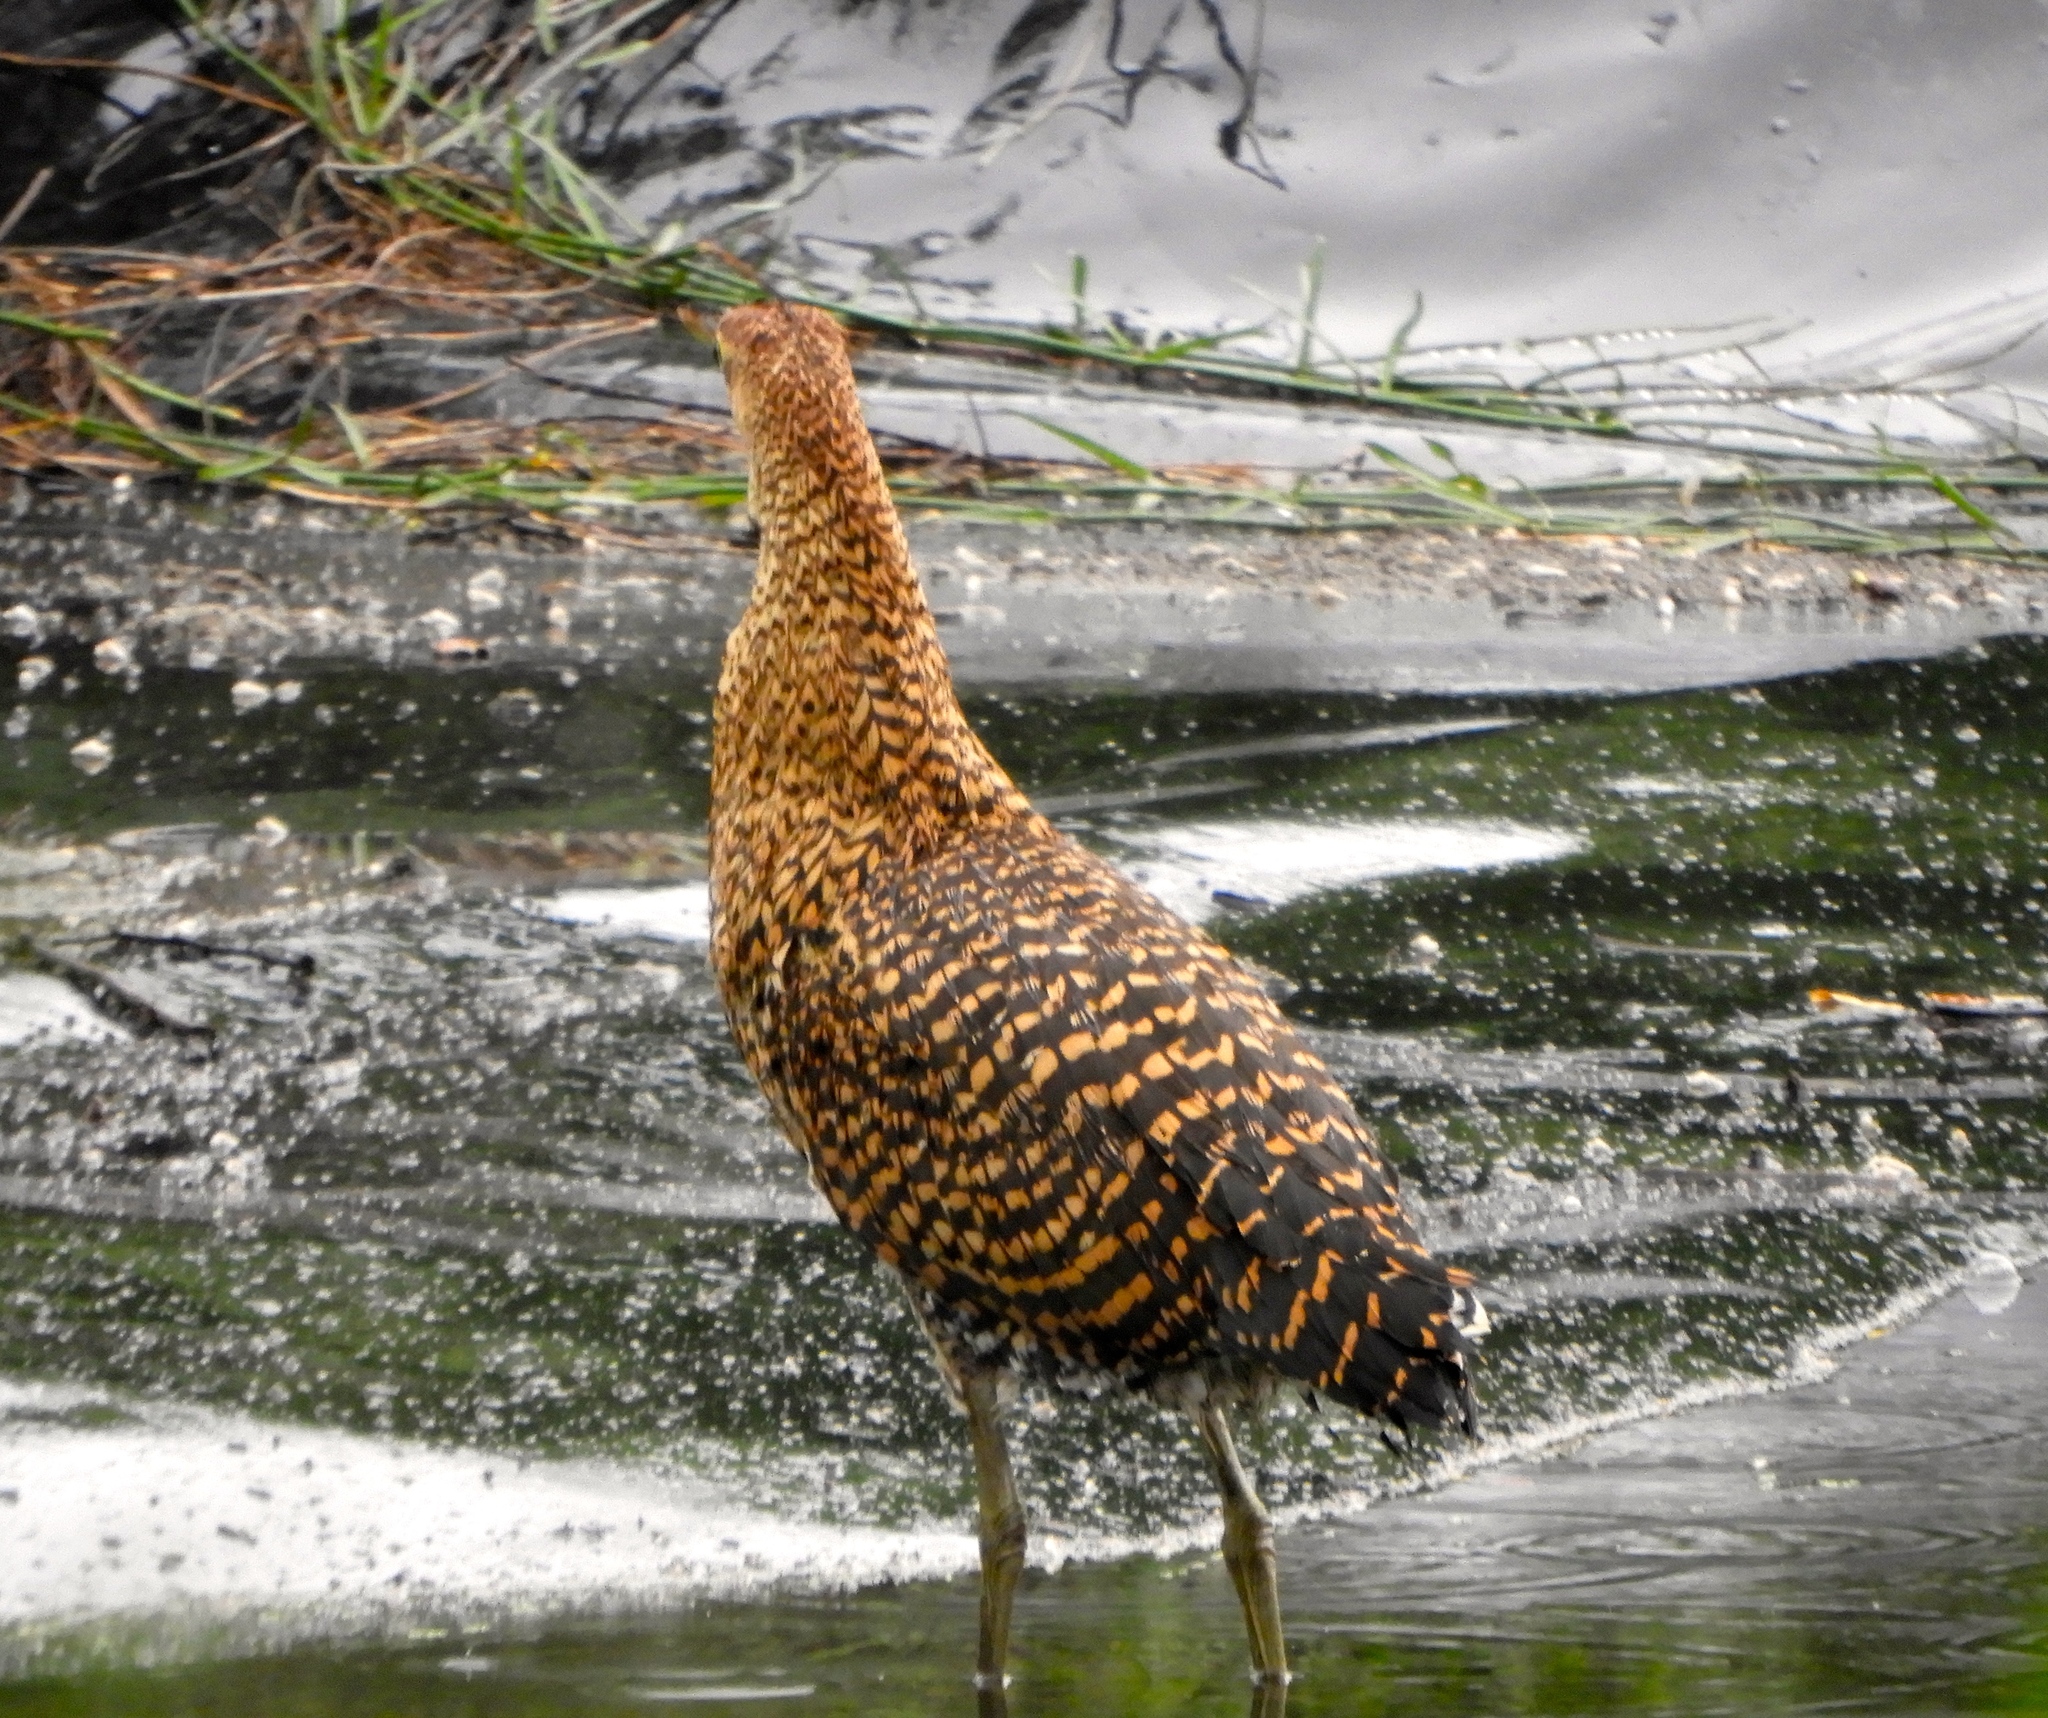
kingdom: Animalia
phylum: Chordata
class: Aves
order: Pelecaniformes
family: Ardeidae
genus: Tigrisoma
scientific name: Tigrisoma mexicanum
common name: Bare-throated tiger-heron
